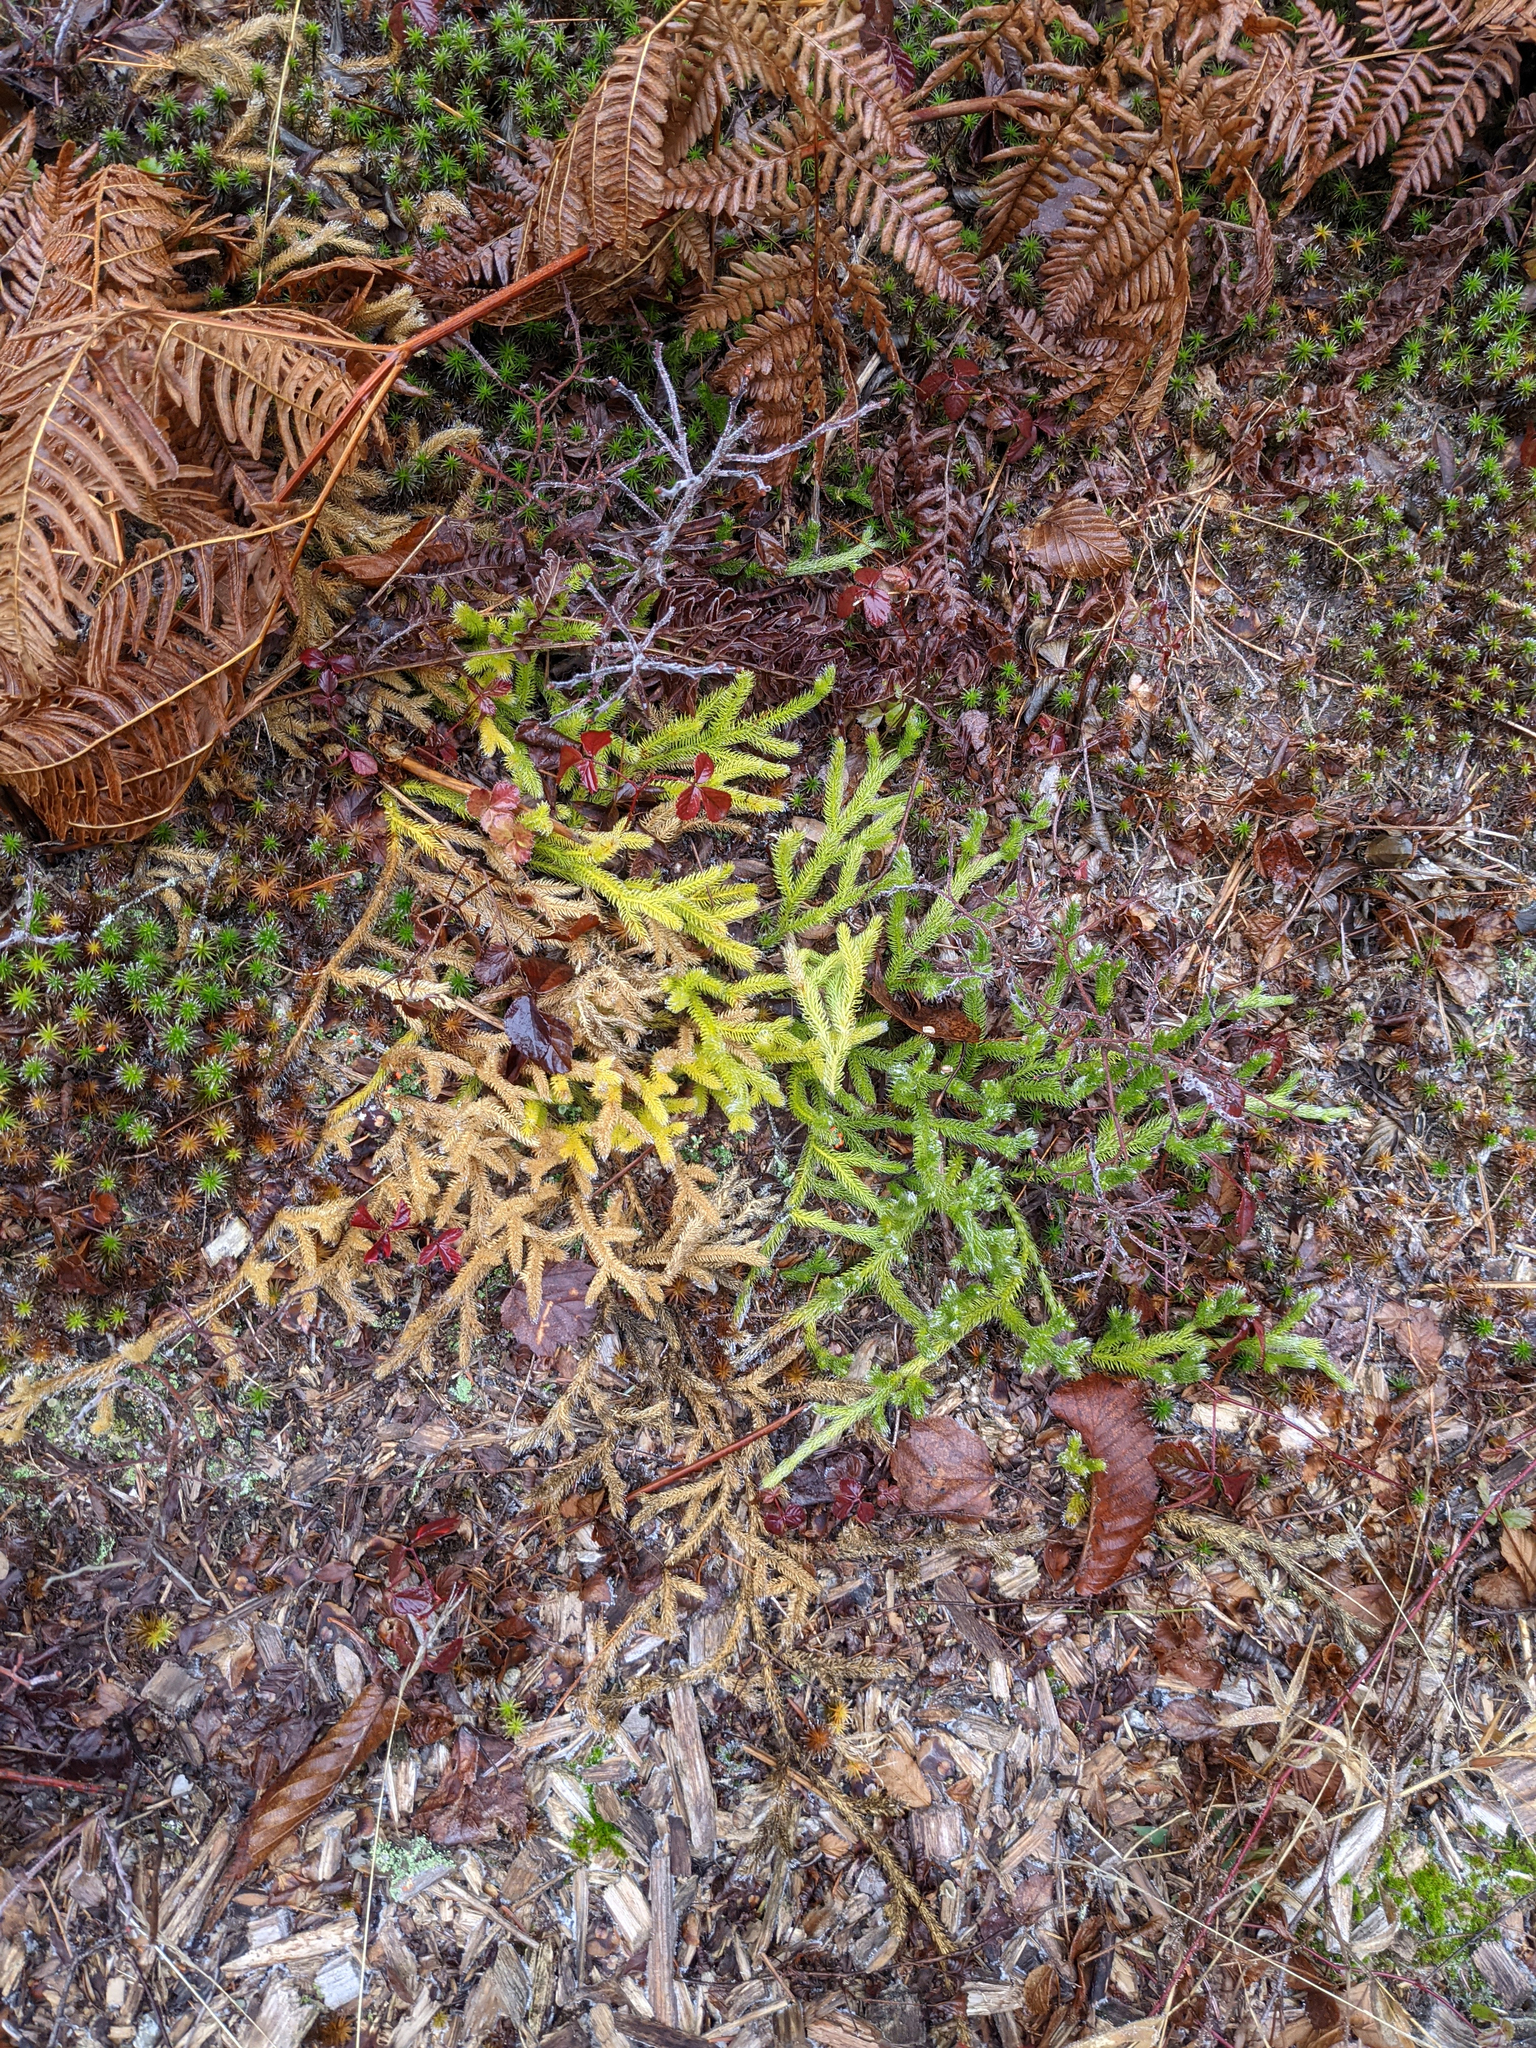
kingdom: Plantae
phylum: Tracheophyta
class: Lycopodiopsida
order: Lycopodiales
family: Lycopodiaceae
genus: Lycopodium
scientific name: Lycopodium clavatum
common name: Stag's-horn clubmoss
